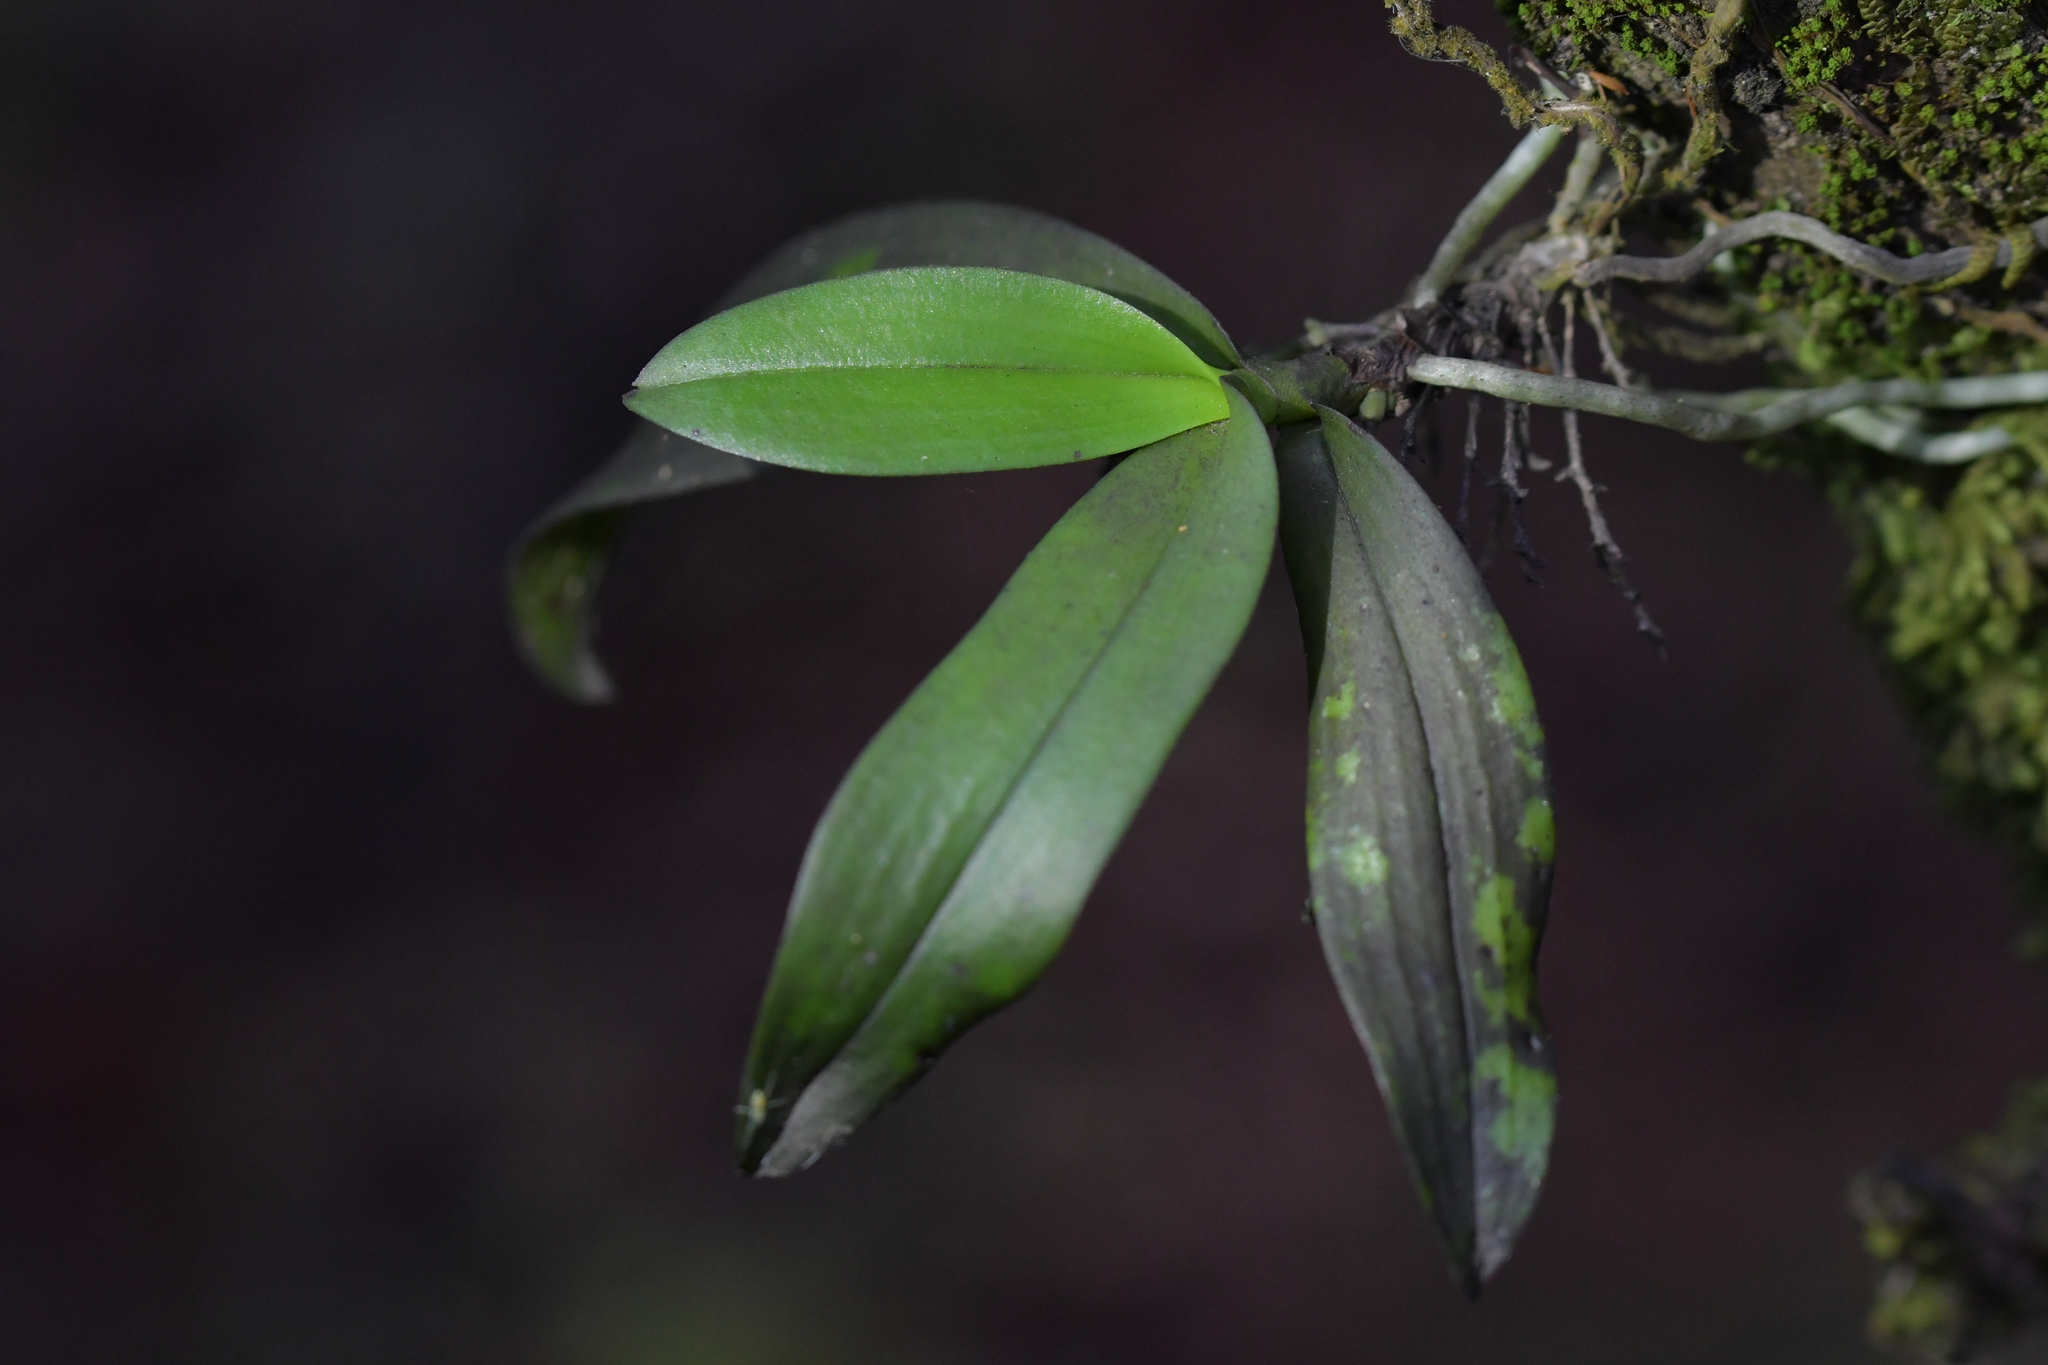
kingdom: Plantae
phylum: Tracheophyta
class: Liliopsida
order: Asparagales
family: Orchidaceae
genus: Drymoanthus
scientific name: Drymoanthus adversus
